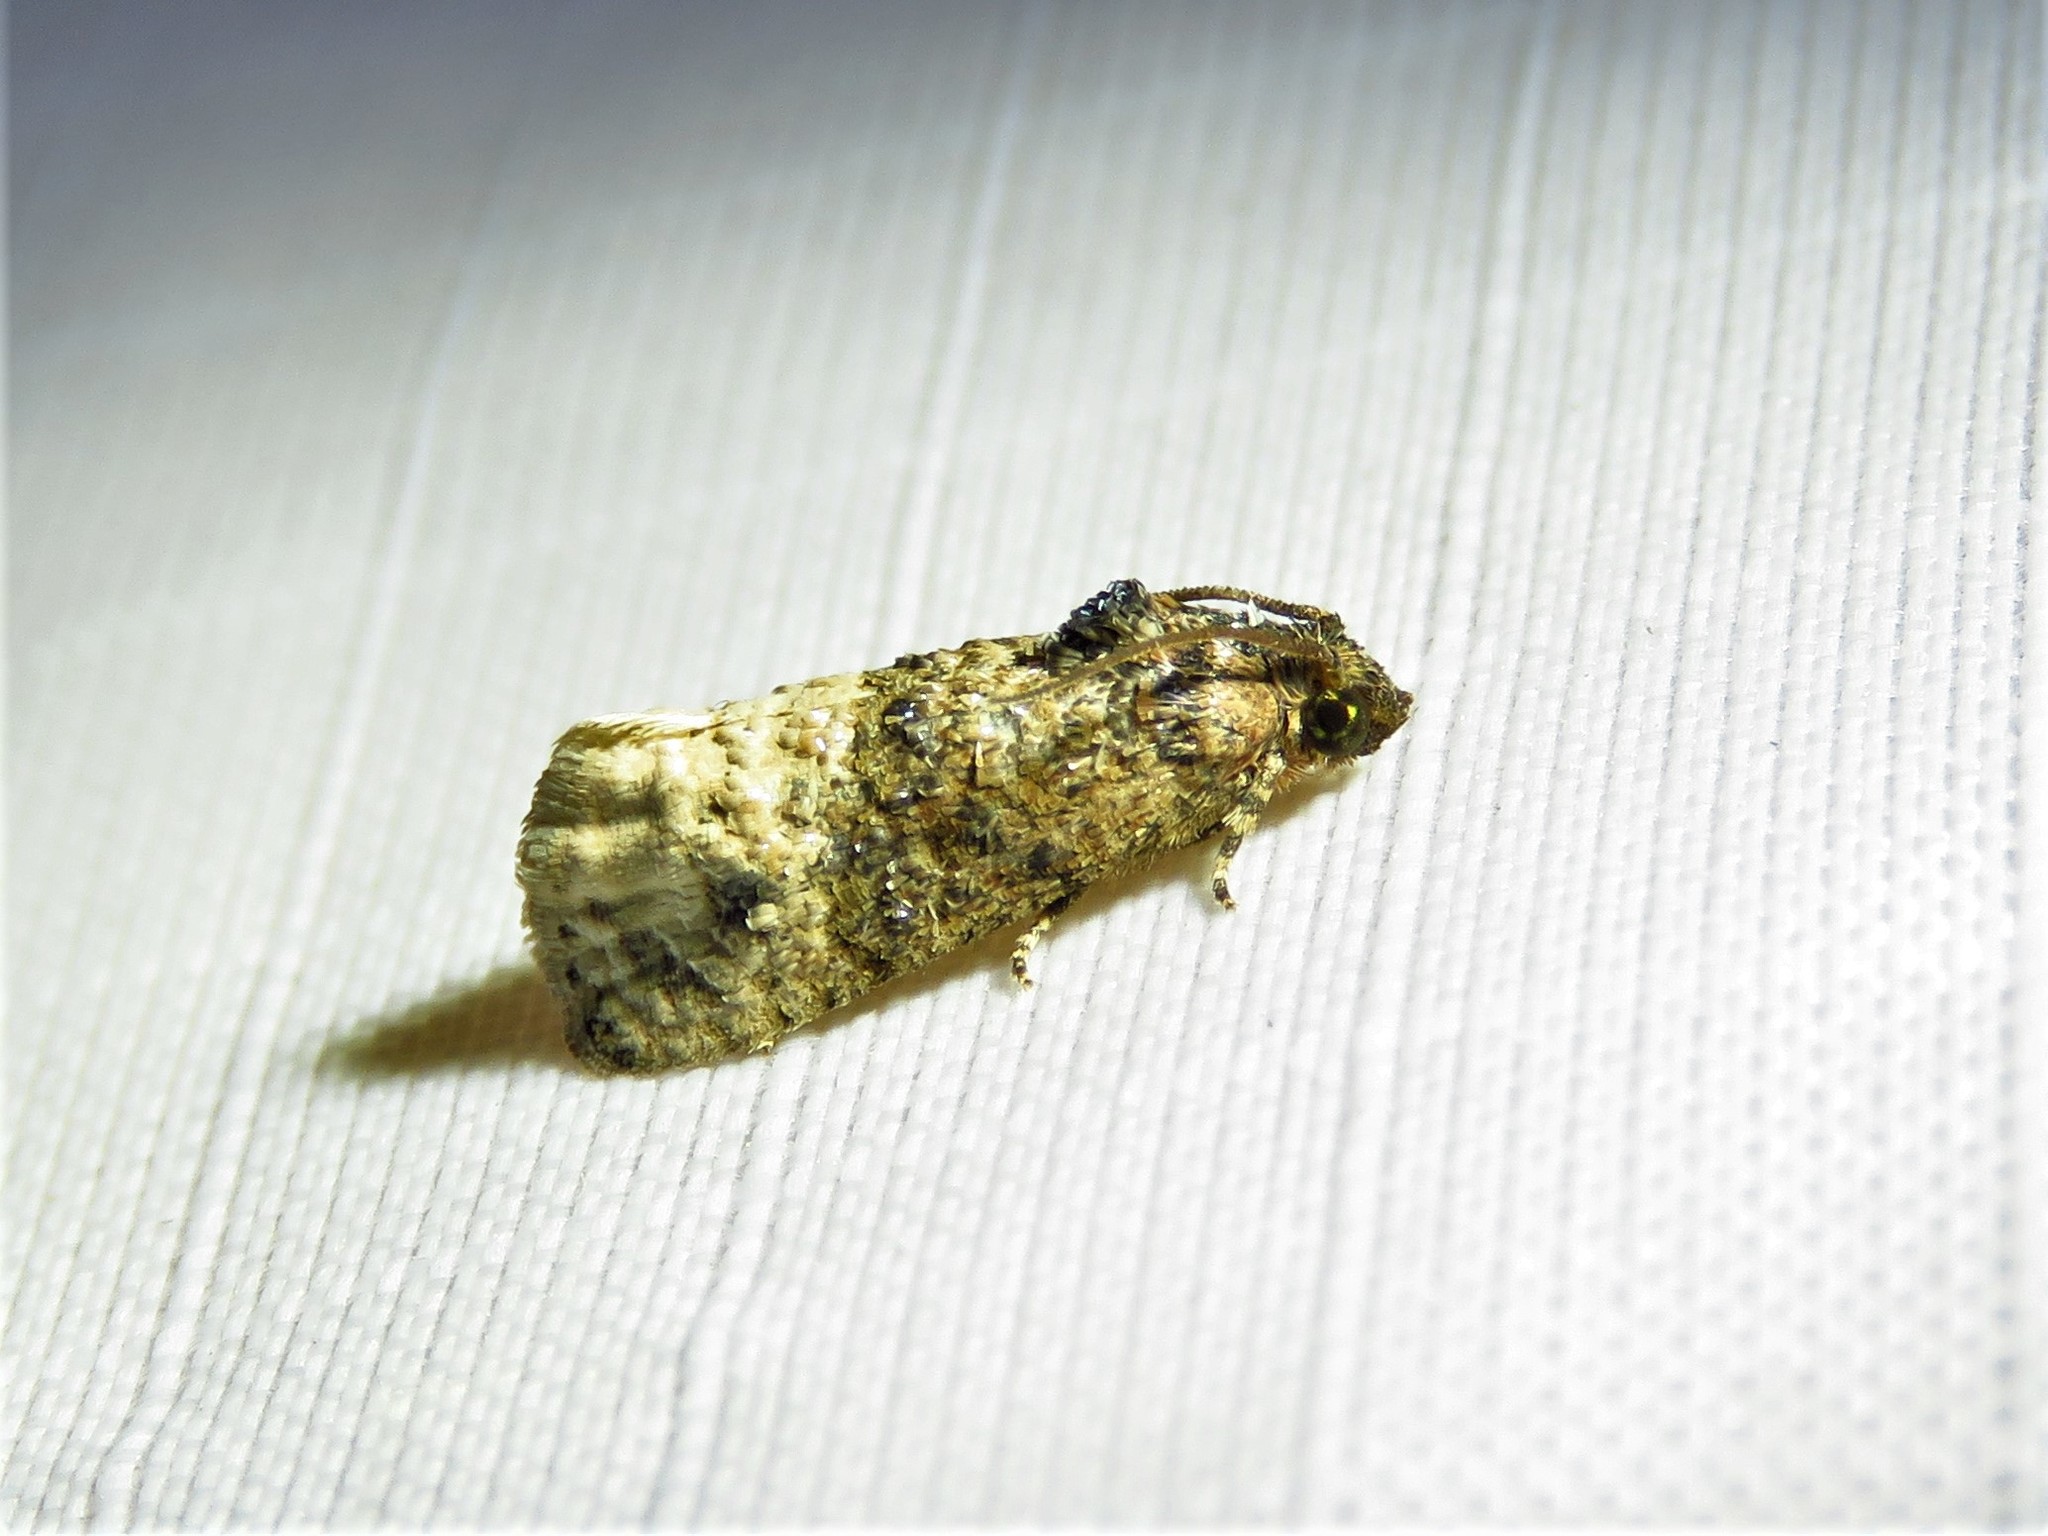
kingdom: Animalia
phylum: Arthropoda
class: Insecta
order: Lepidoptera
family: Tortricidae
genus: Ecdytolopha
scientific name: Ecdytolopha mana
